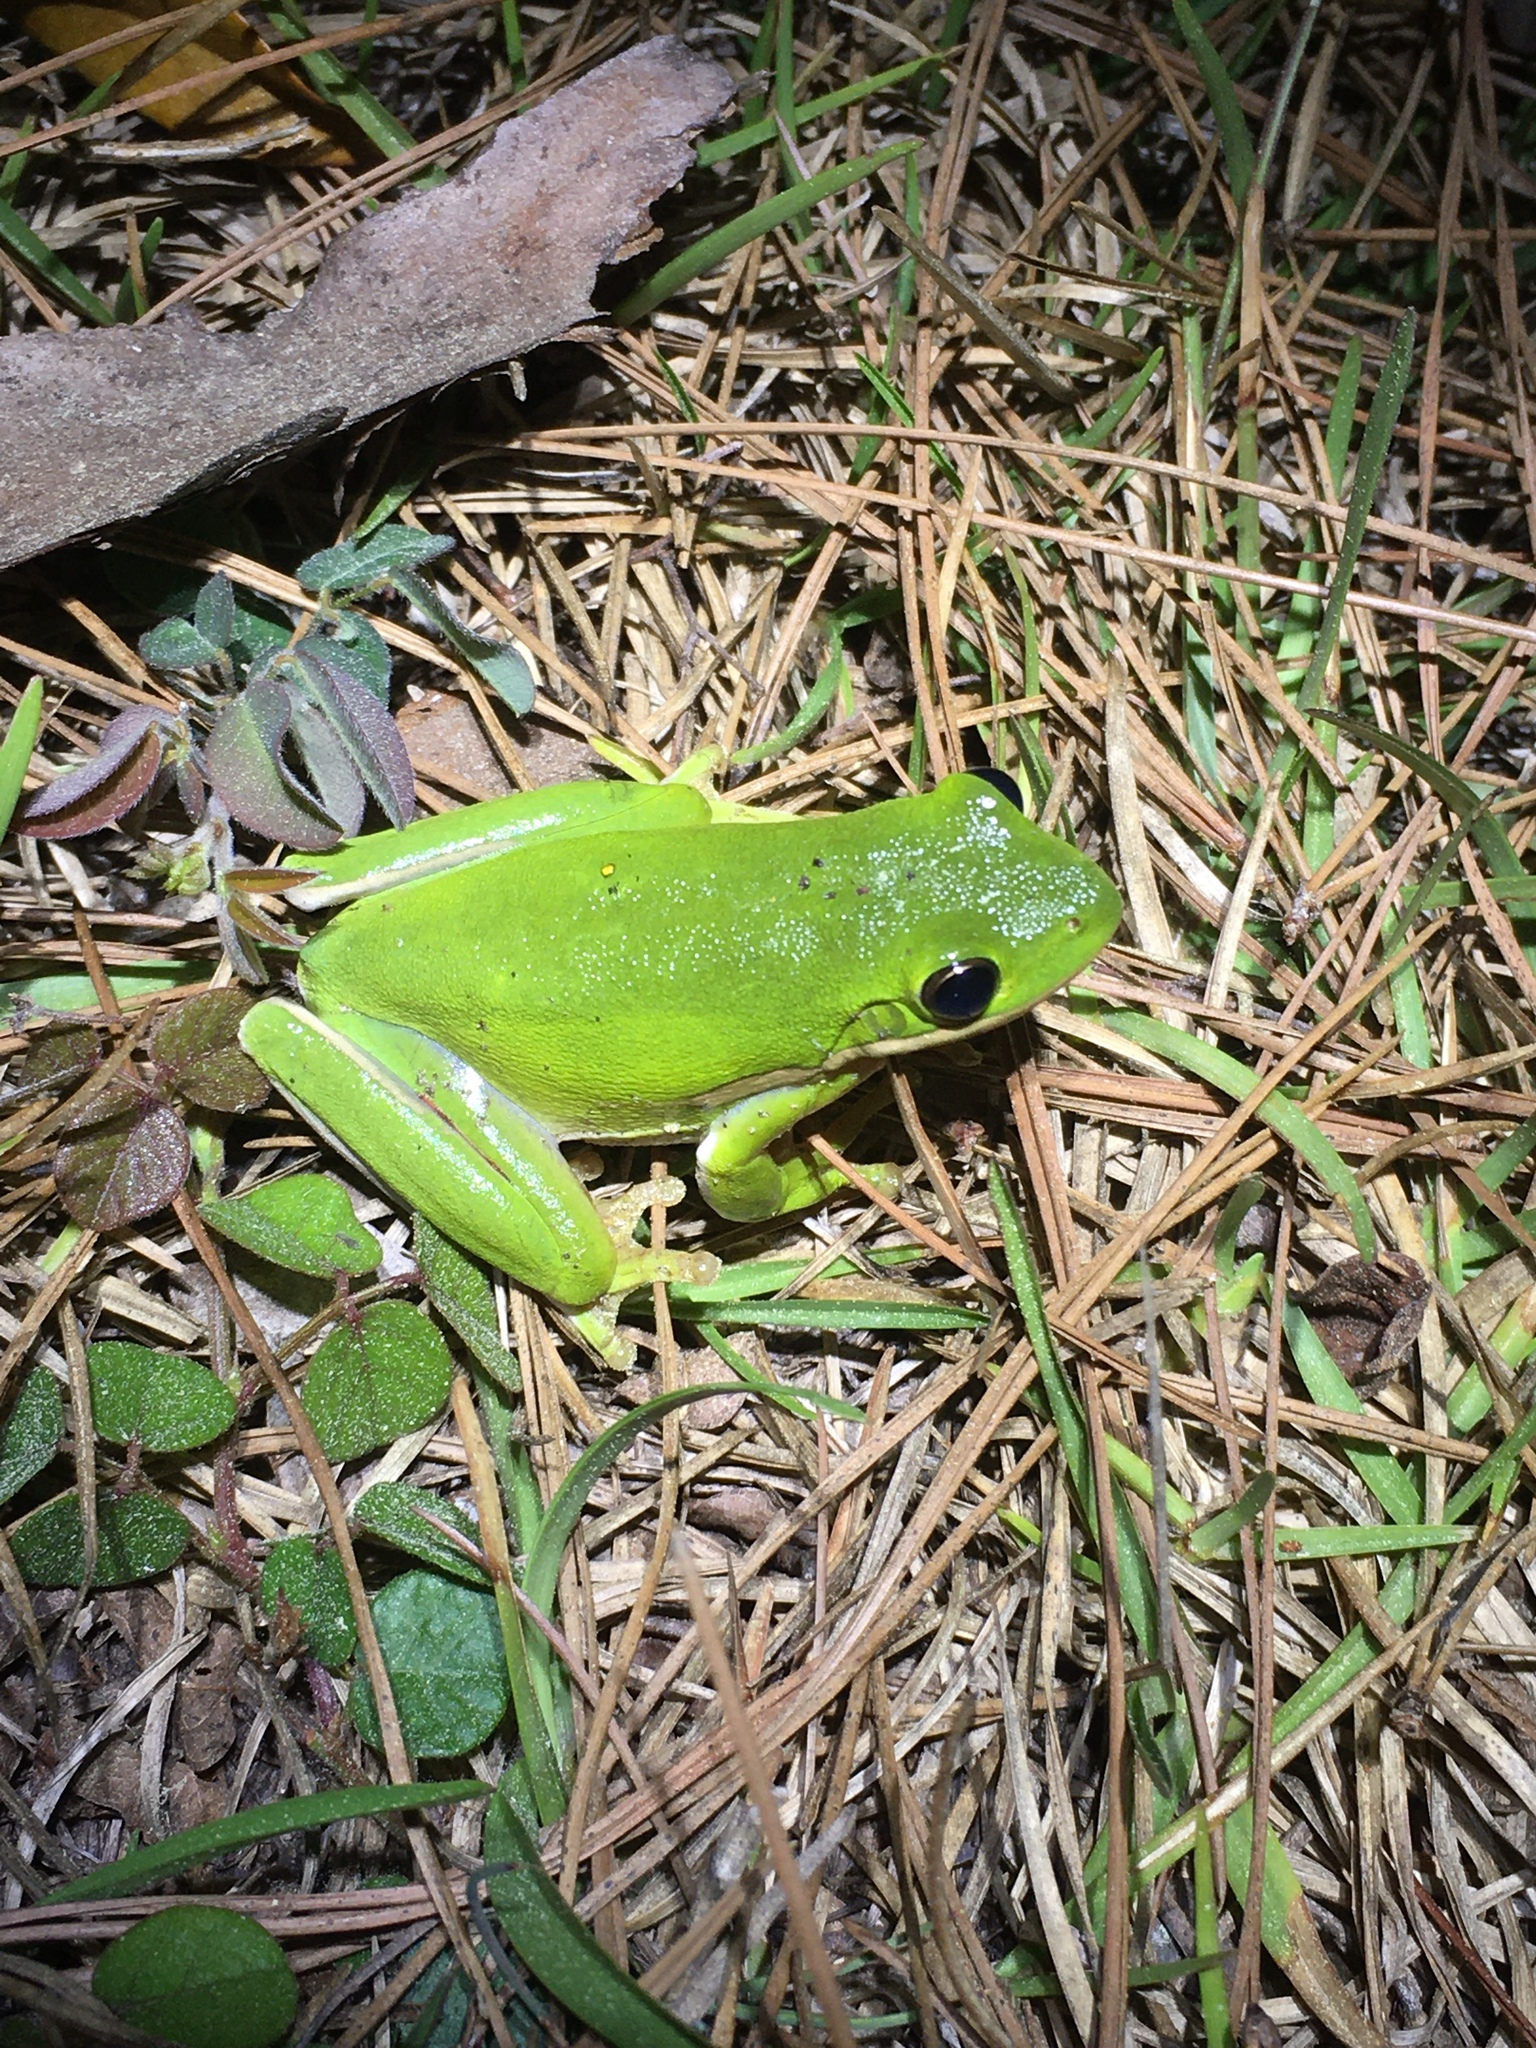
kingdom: Animalia
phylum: Chordata
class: Amphibia
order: Anura
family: Hylidae
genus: Dryophytes
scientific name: Dryophytes cinereus
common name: Green treefrog
